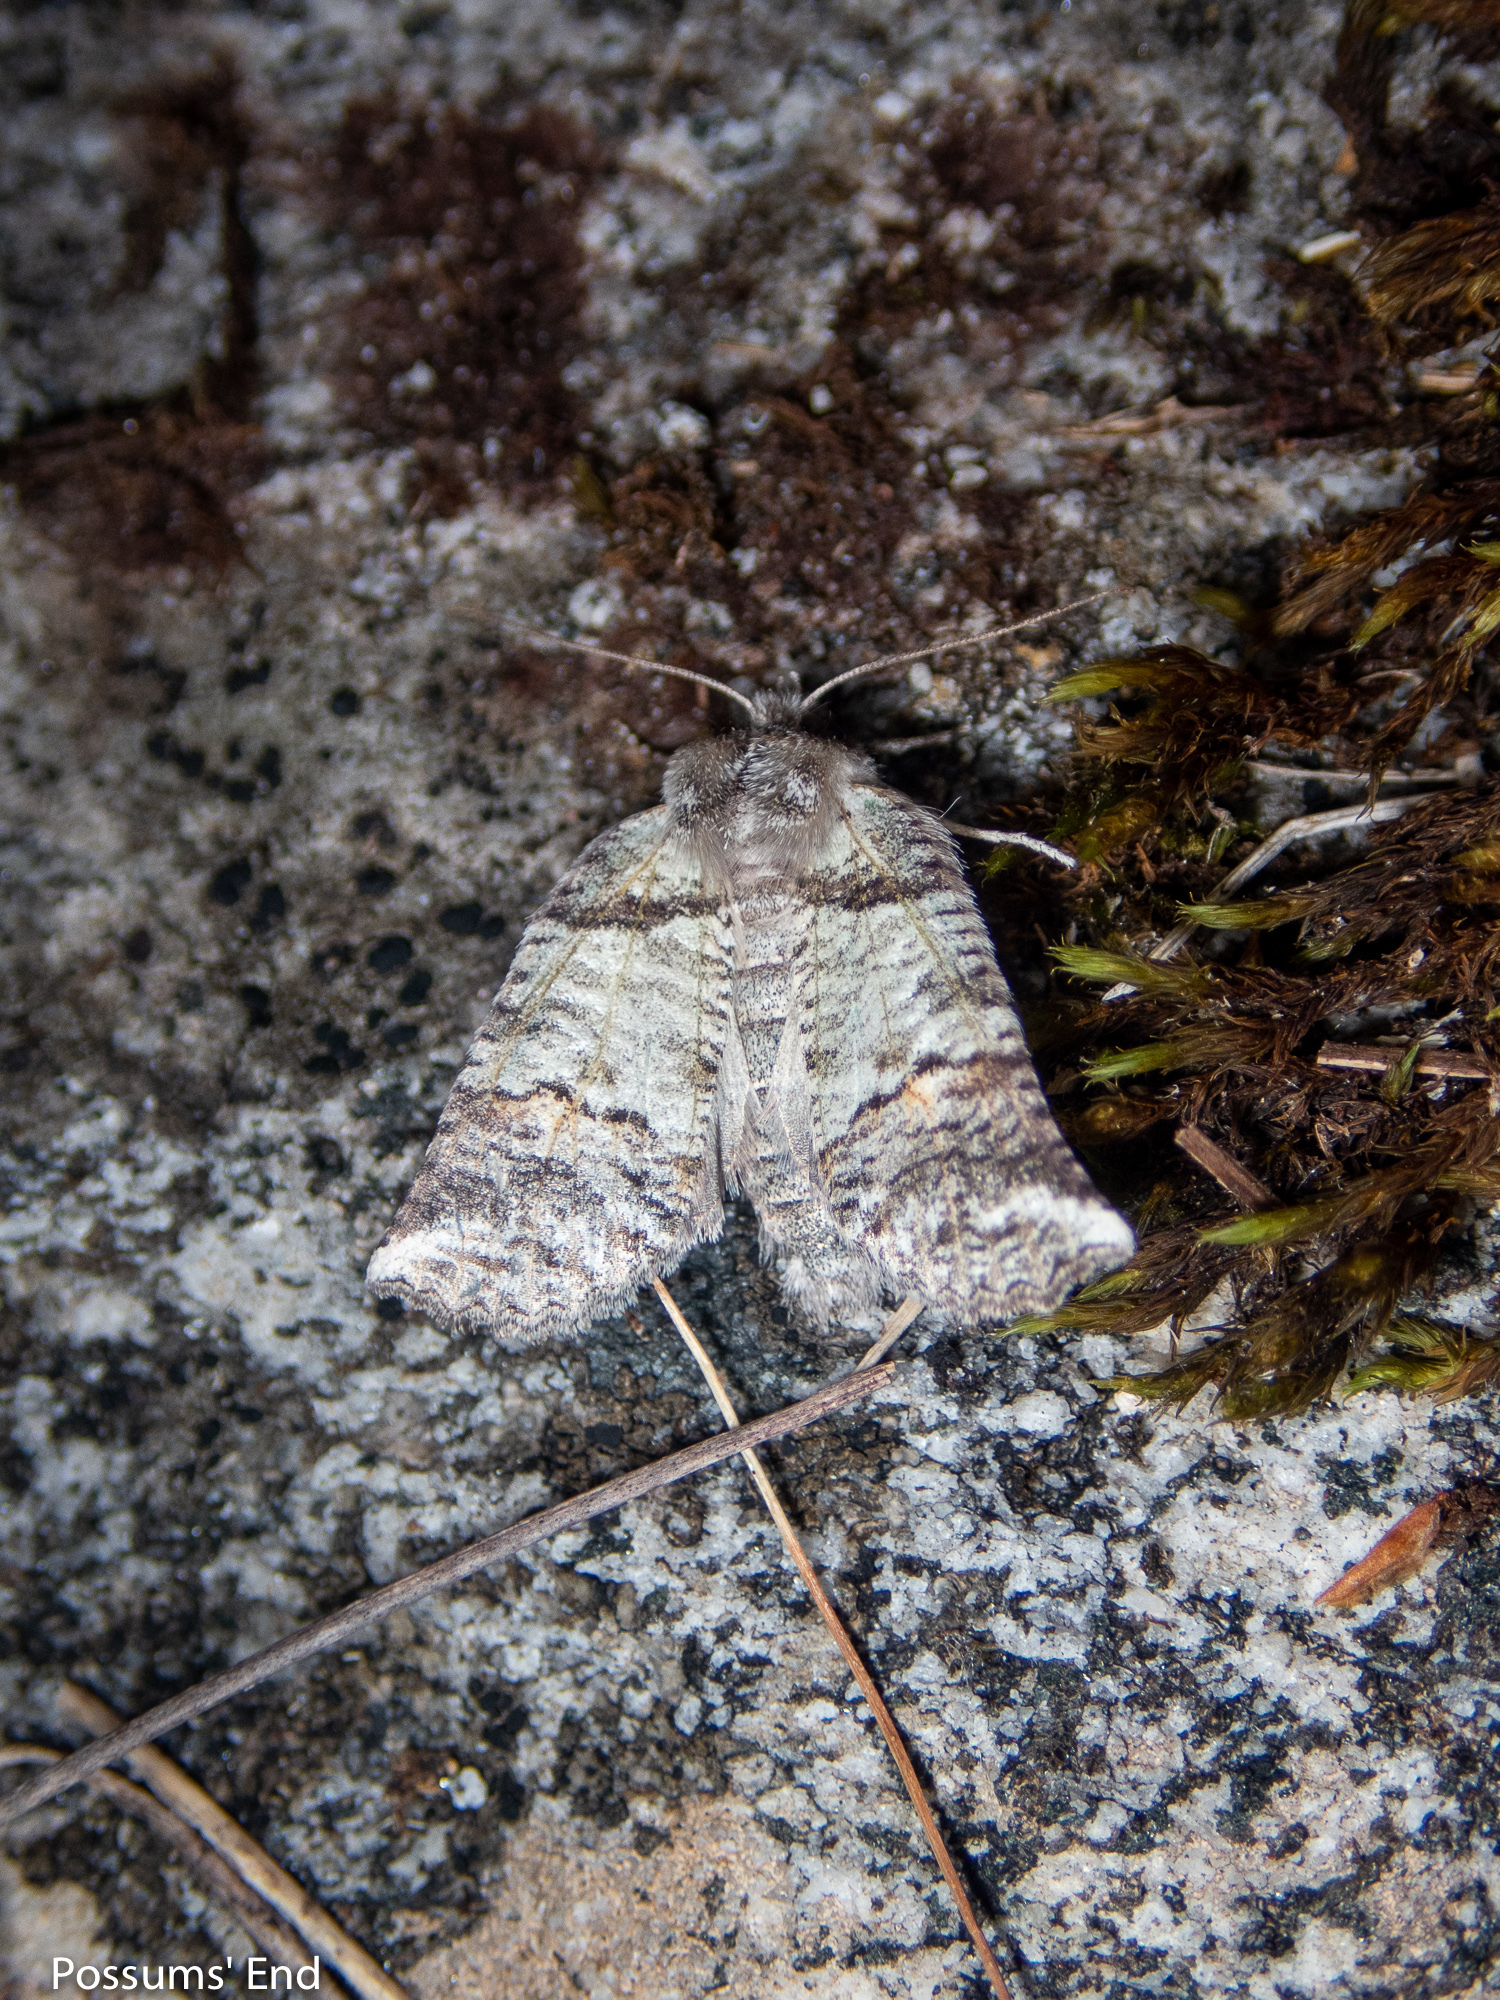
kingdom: Animalia
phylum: Arthropoda
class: Insecta
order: Lepidoptera
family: Geometridae
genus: Declana
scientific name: Declana
